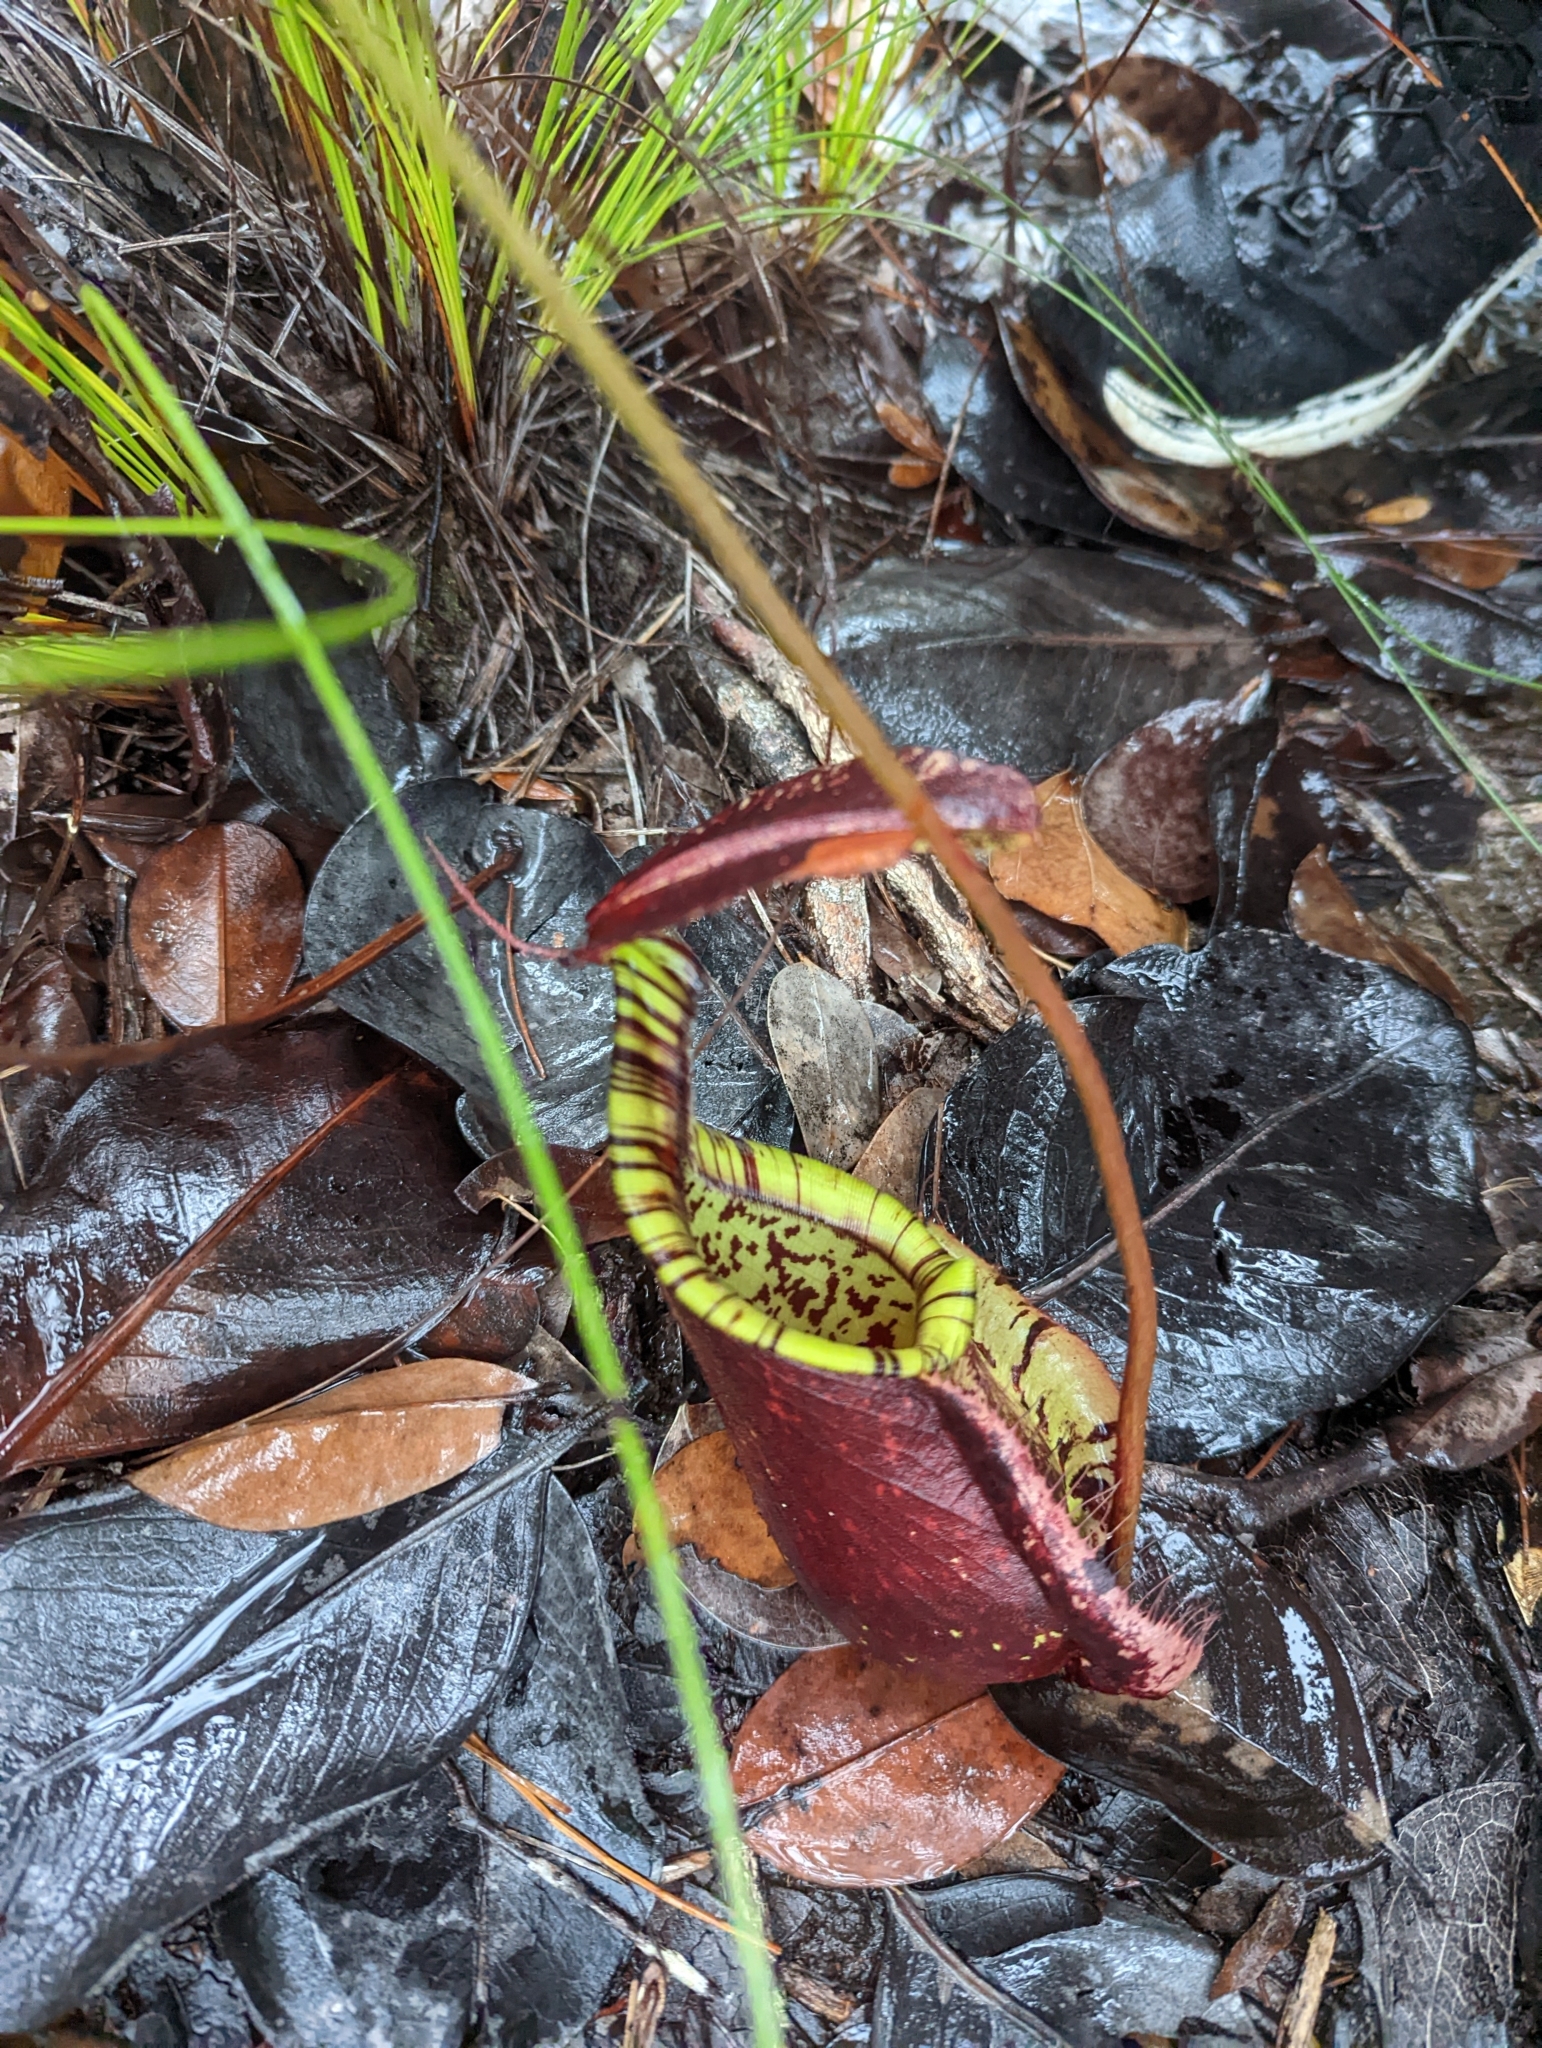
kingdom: Plantae
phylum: Tracheophyta
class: Magnoliopsida
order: Caryophyllales
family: Nepenthaceae
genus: Nepenthes
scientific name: Nepenthes rafflesiana
